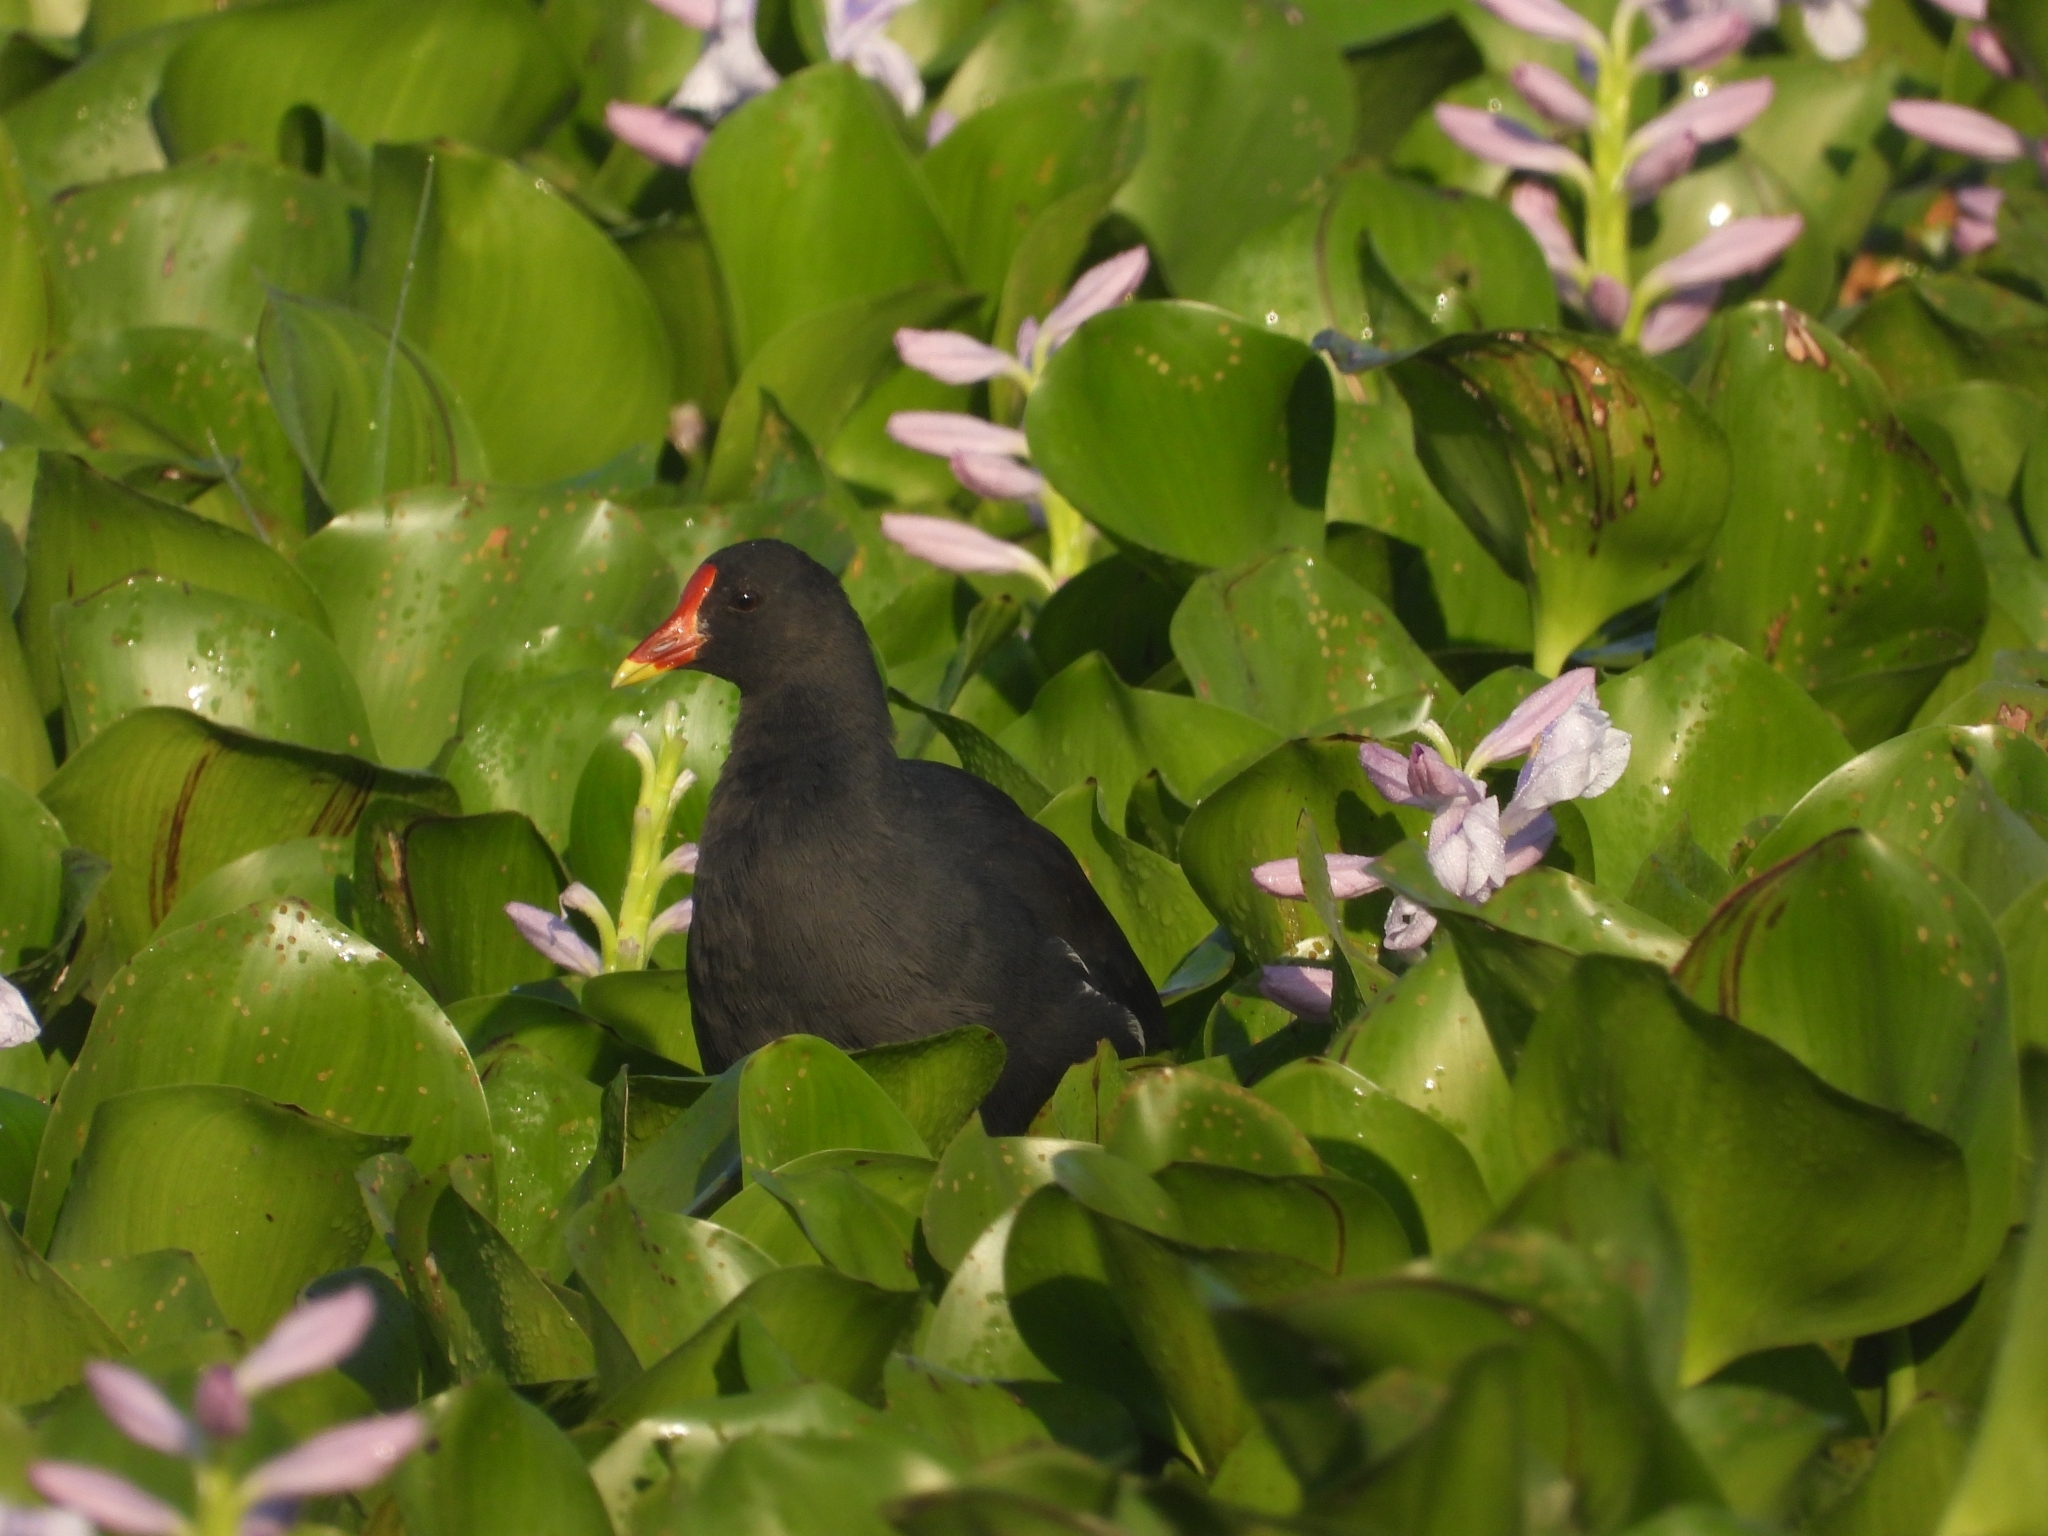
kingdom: Animalia
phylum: Chordata
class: Aves
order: Gruiformes
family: Rallidae
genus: Gallinula
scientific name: Gallinula chloropus
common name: Common moorhen
